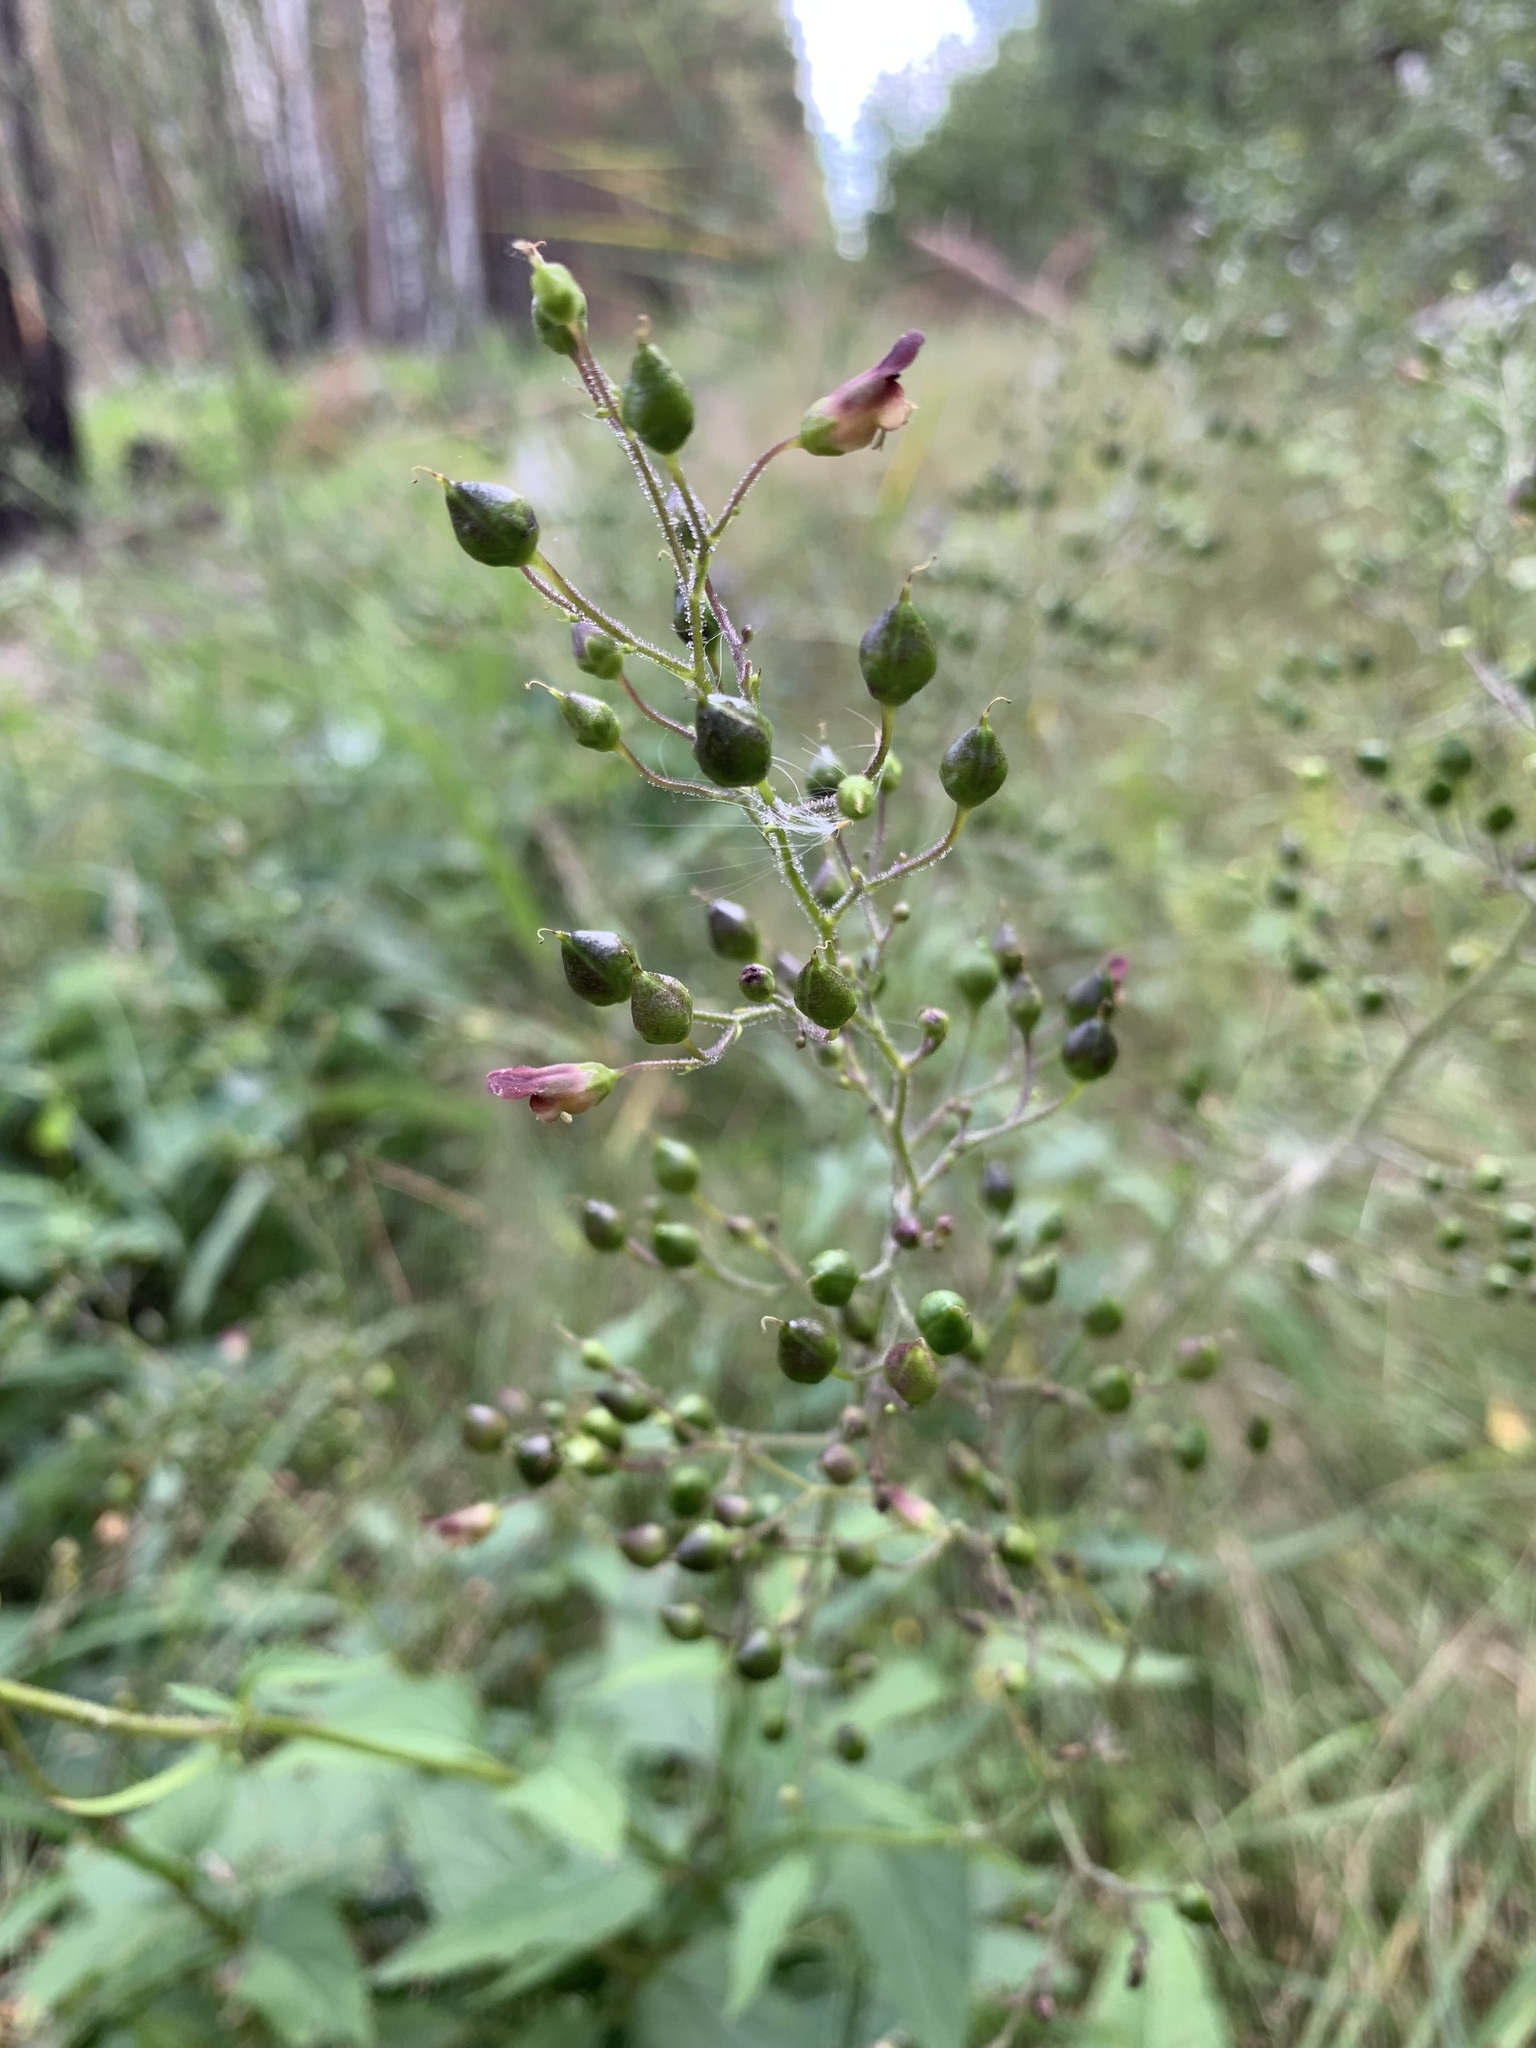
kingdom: Plantae
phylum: Tracheophyta
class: Magnoliopsida
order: Lamiales
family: Scrophulariaceae
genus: Scrophularia
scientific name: Scrophularia nodosa
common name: Common figwort
